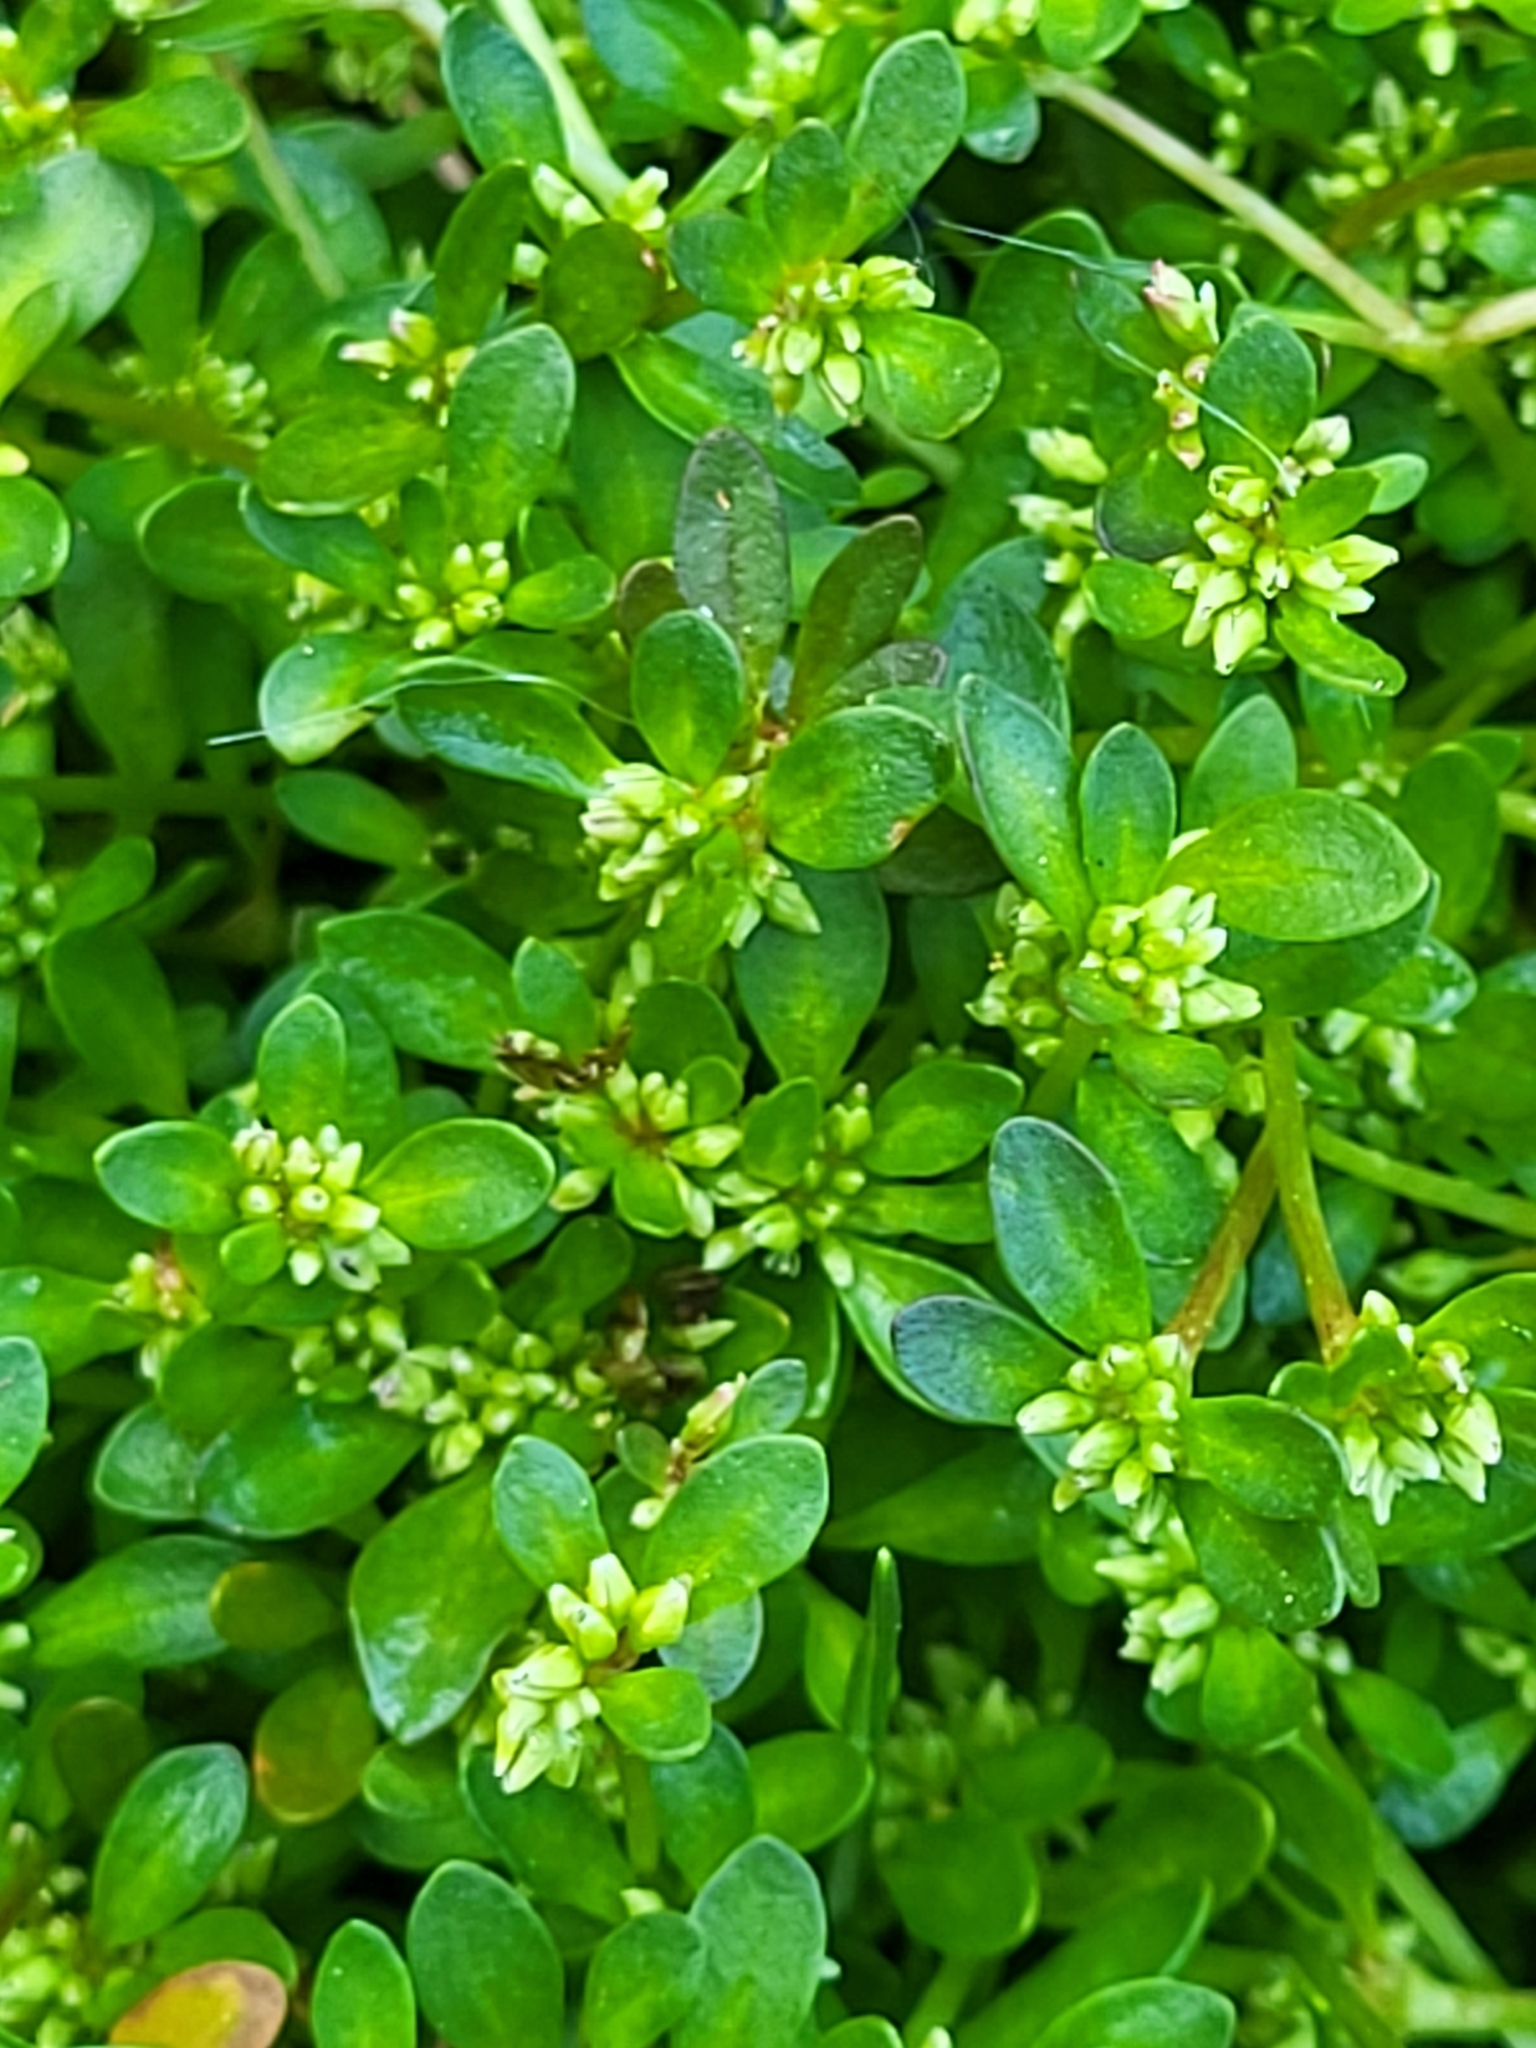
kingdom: Plantae
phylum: Tracheophyta
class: Magnoliopsida
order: Caryophyllales
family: Polygonaceae
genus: Koenigia
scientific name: Koenigia islandica
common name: Iceland-purslane
